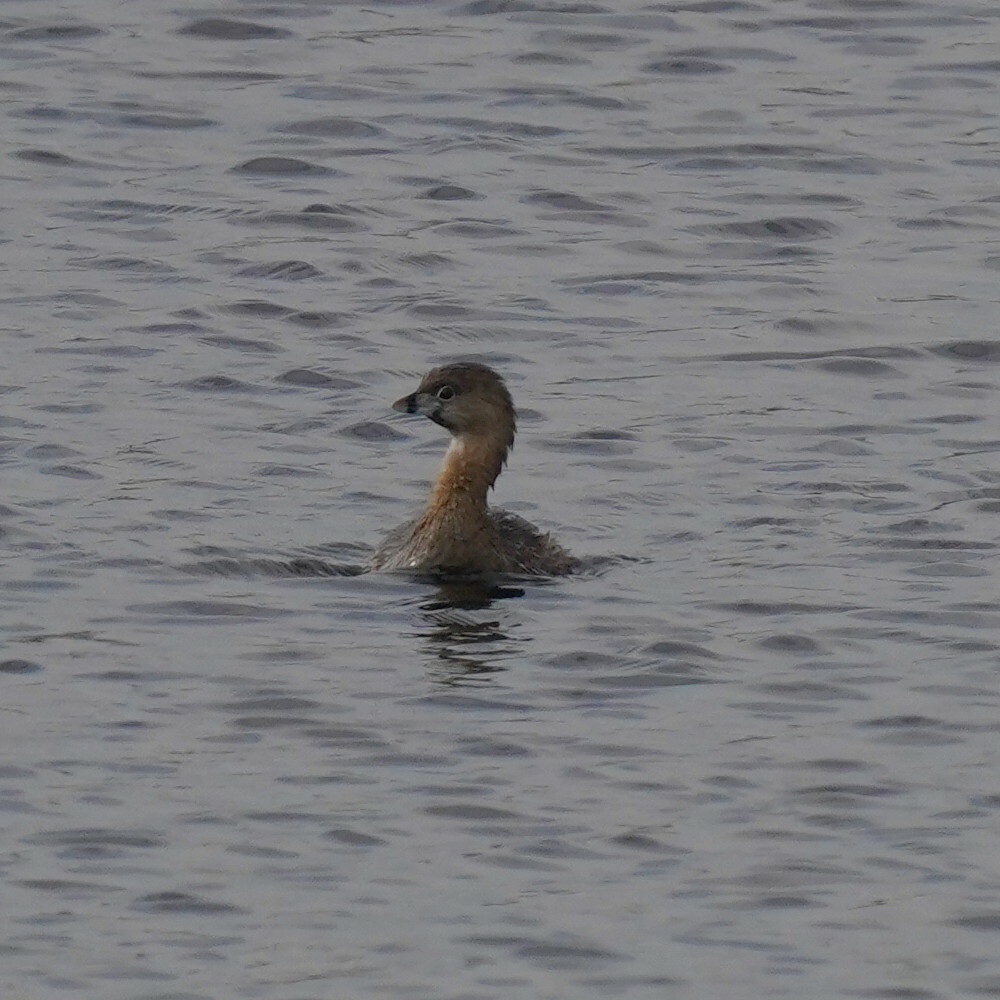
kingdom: Animalia
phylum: Chordata
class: Aves
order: Podicipediformes
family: Podicipedidae
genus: Podilymbus
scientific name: Podilymbus podiceps
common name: Pied-billed grebe
